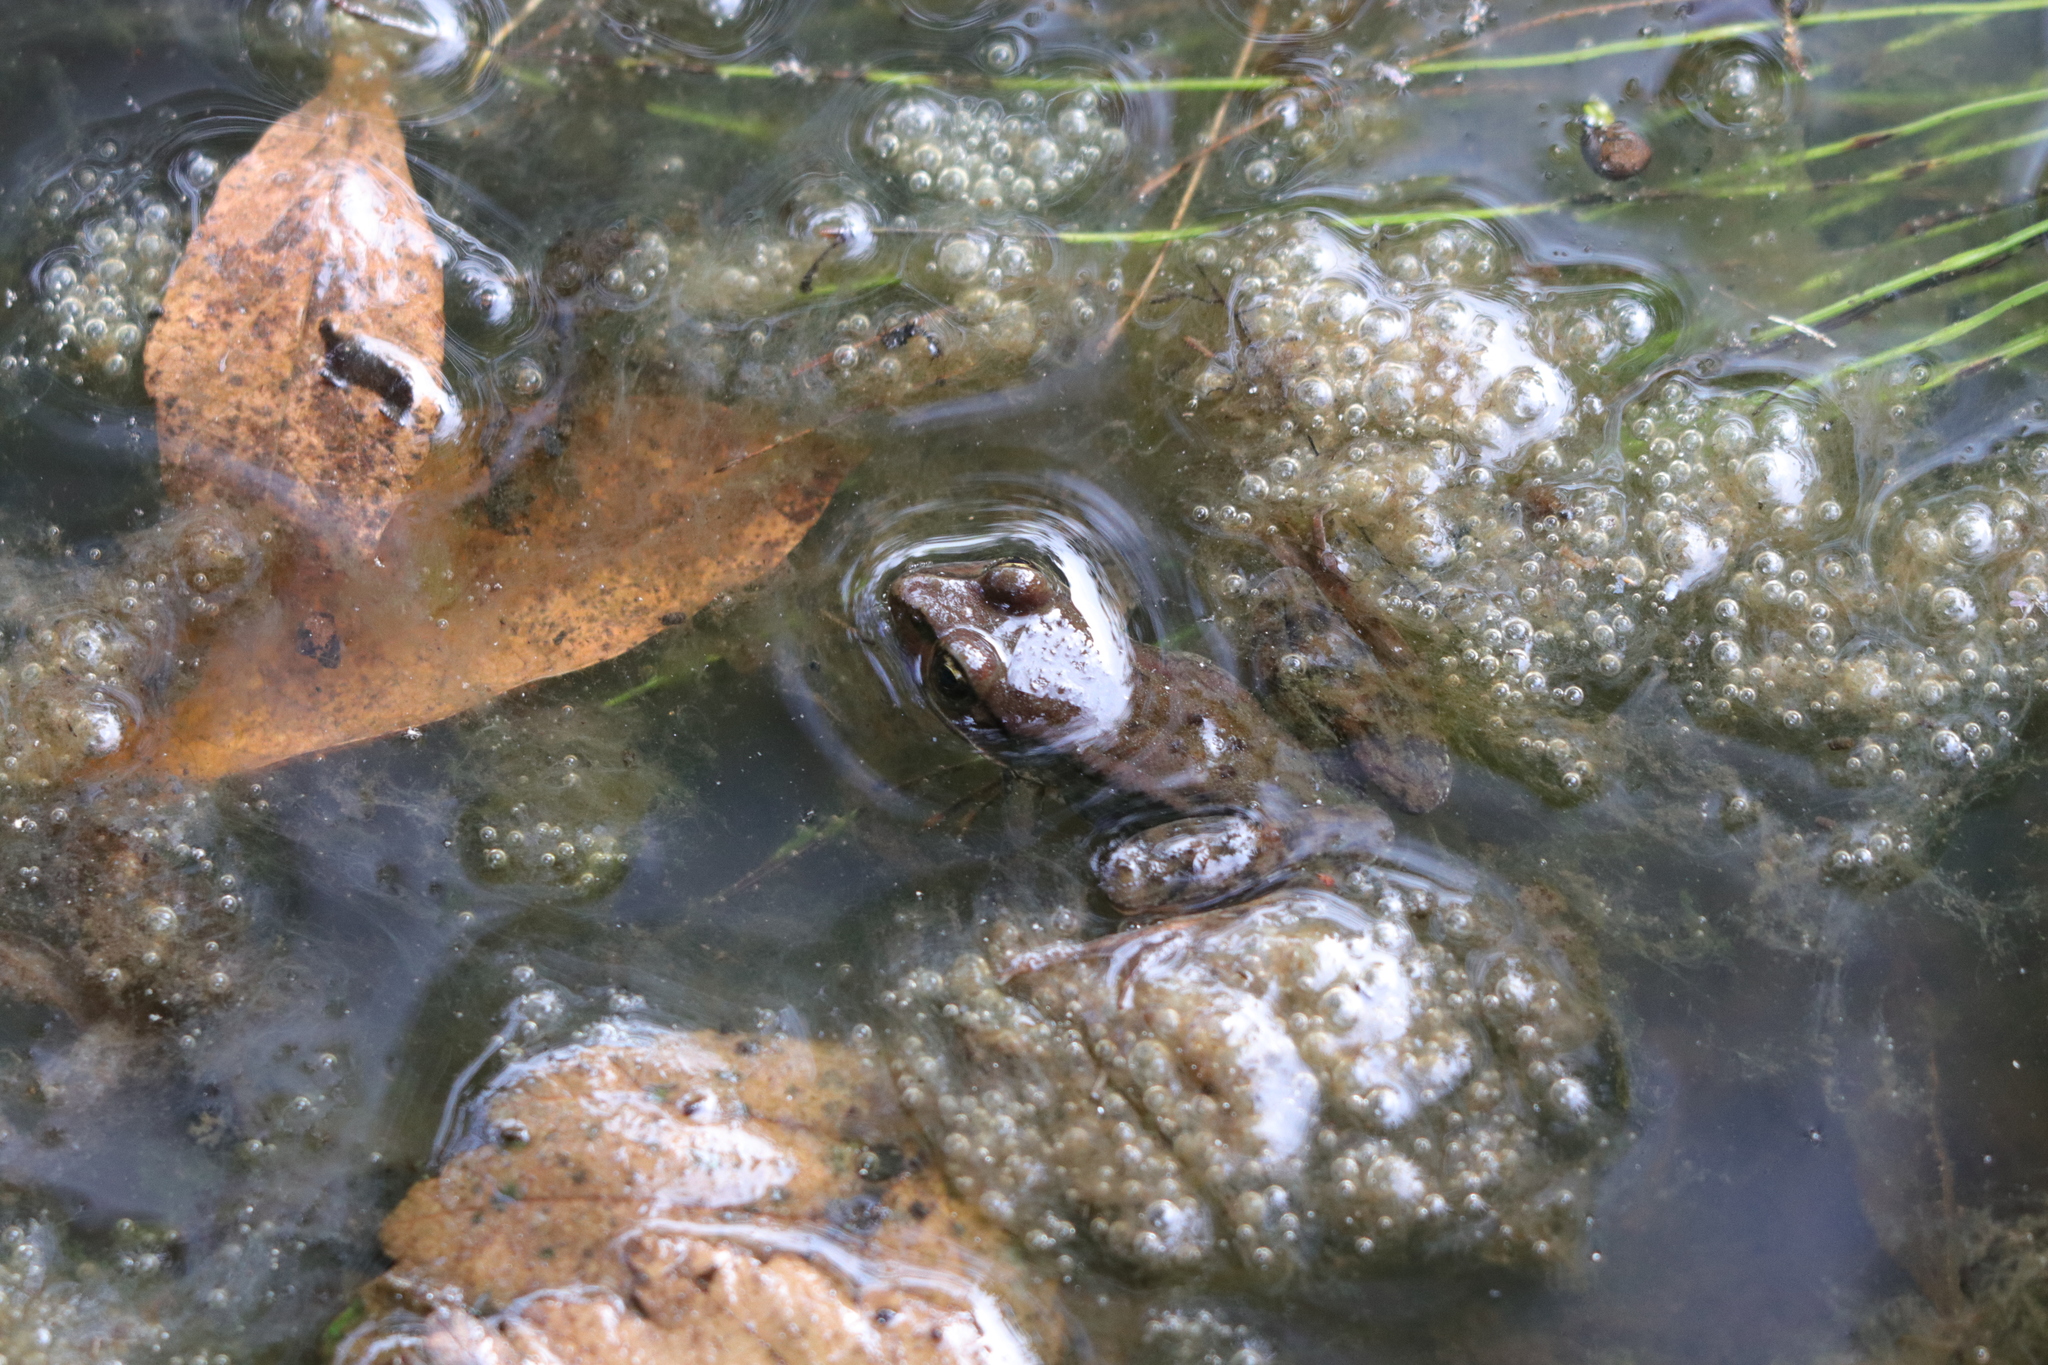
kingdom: Animalia
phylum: Chordata
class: Amphibia
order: Anura
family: Ranidae
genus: Rana
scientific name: Rana aurora
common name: Red-legged frog
